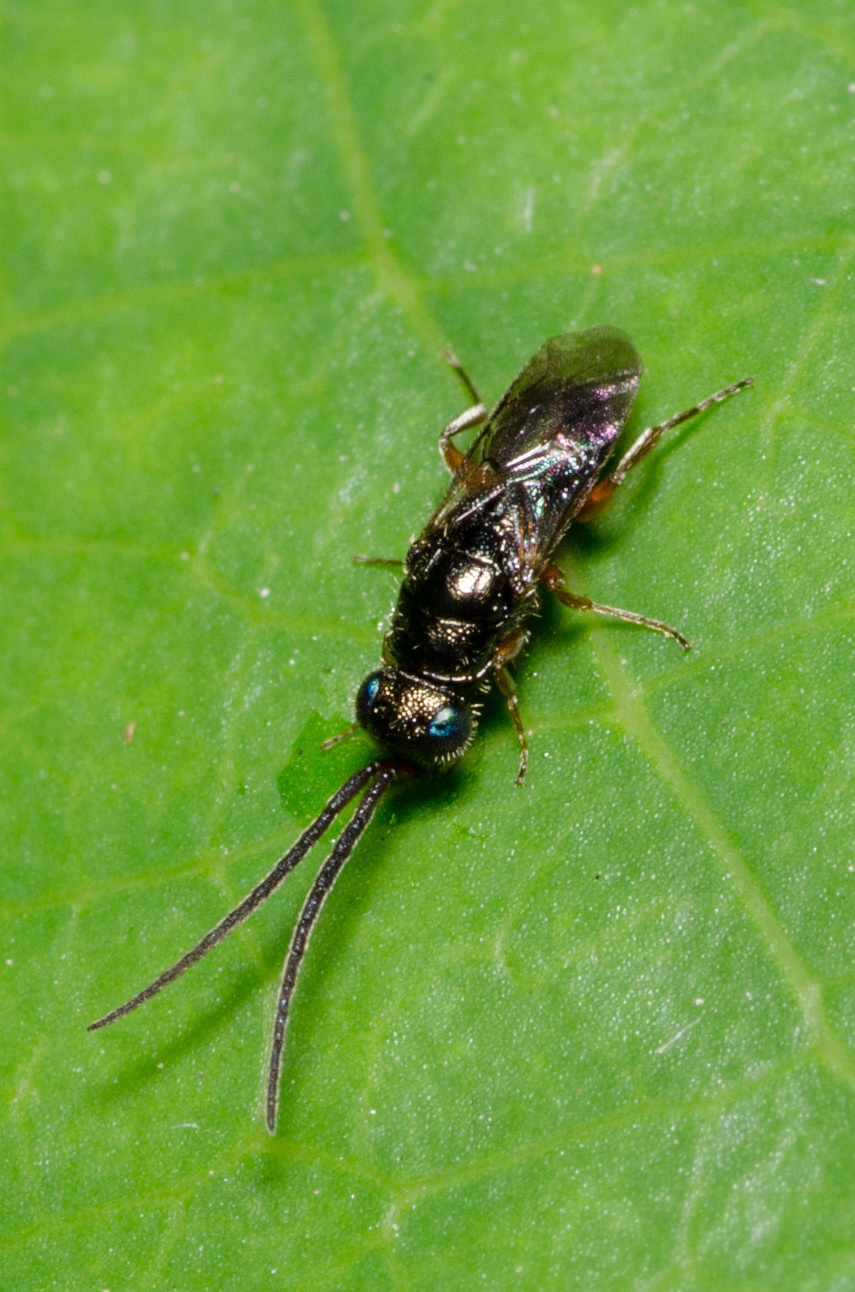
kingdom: Animalia
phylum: Arthropoda
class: Insecta
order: Hymenoptera
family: Chrysididae
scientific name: Chrysididae
